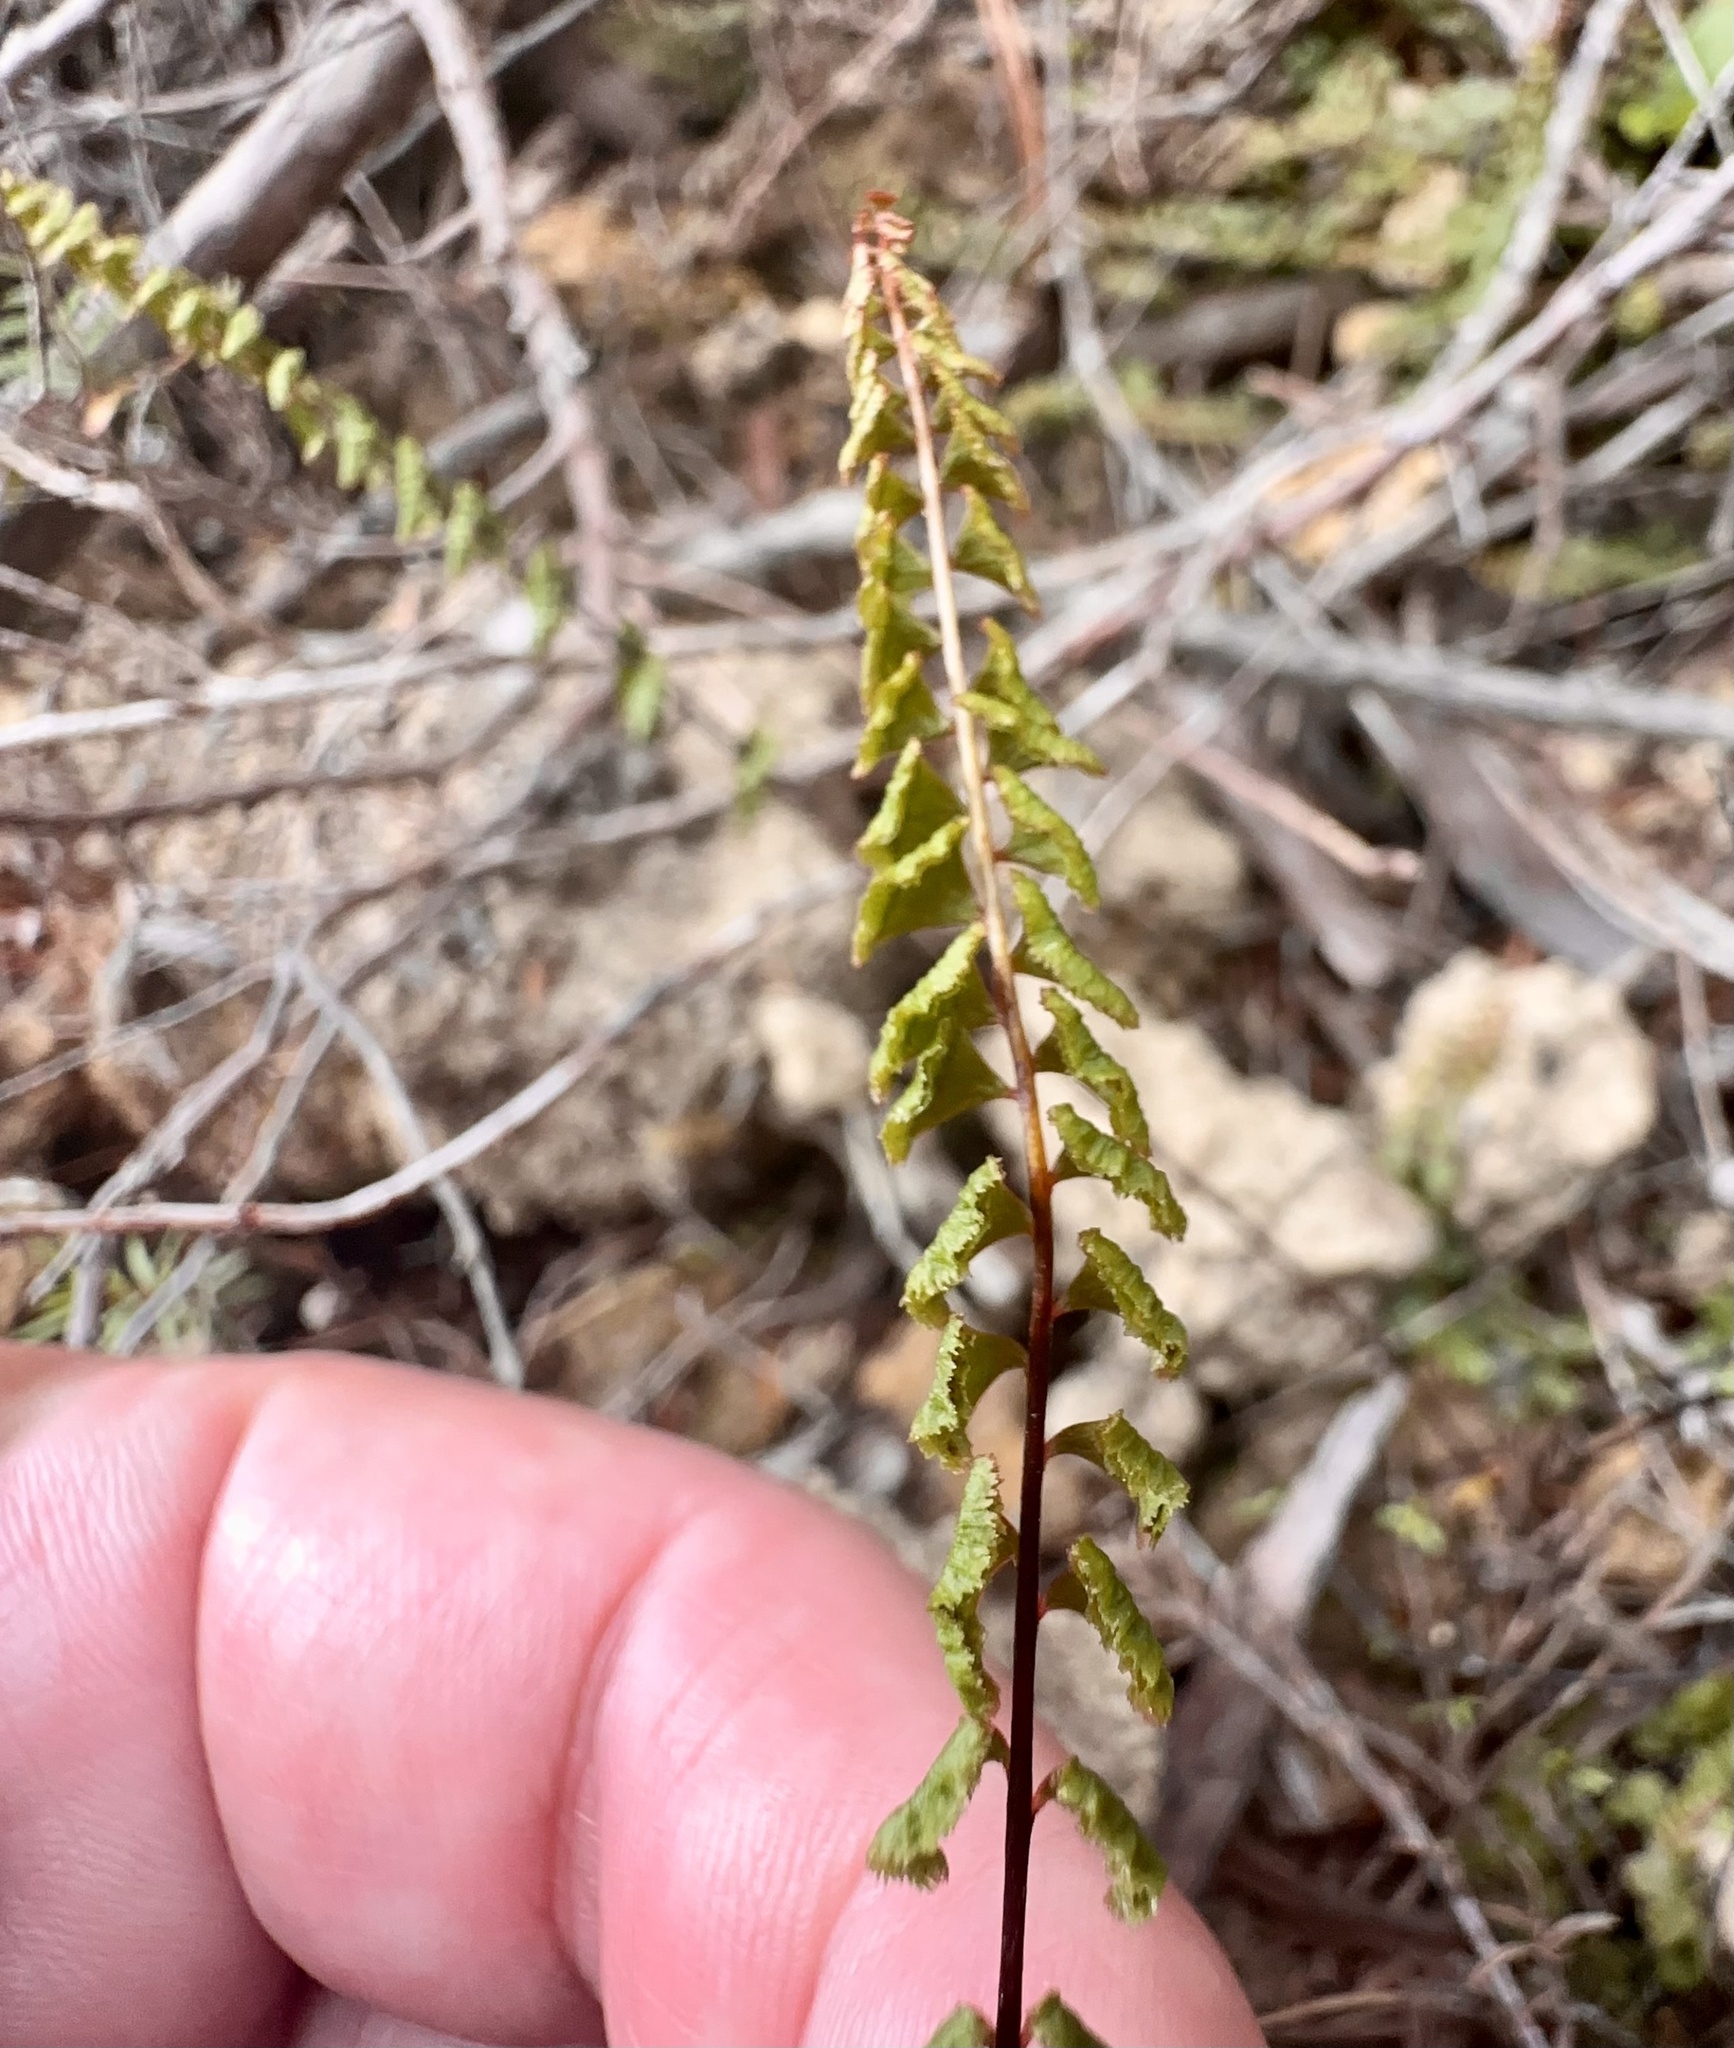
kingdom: Plantae
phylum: Tracheophyta
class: Polypodiopsida
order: Polypodiales
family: Lindsaeaceae
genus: Lindsaea
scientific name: Lindsaea linearis
